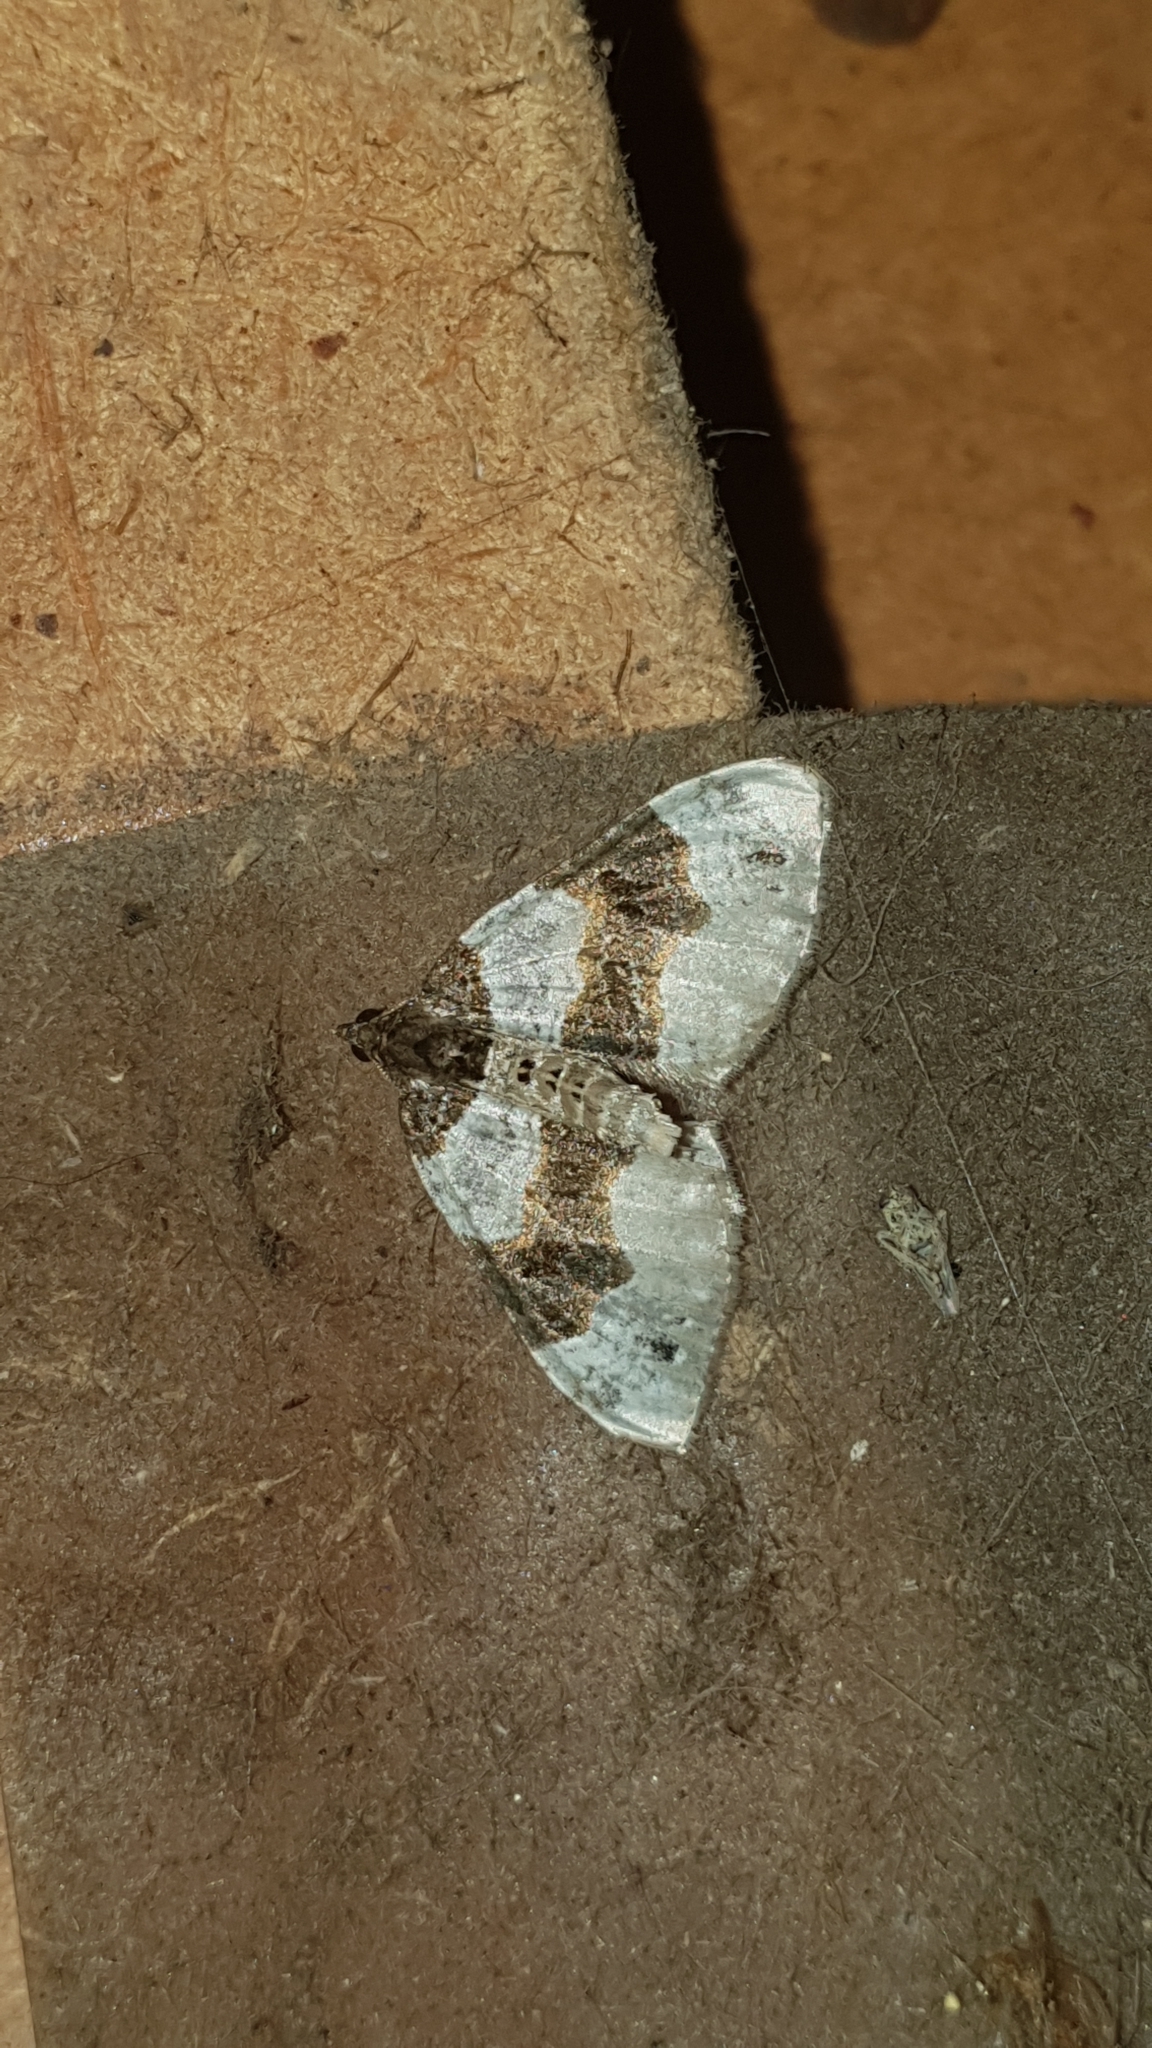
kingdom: Animalia
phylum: Arthropoda
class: Insecta
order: Lepidoptera
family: Geometridae
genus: Cosmorhoe
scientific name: Cosmorhoe ocellata
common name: Purple bar
